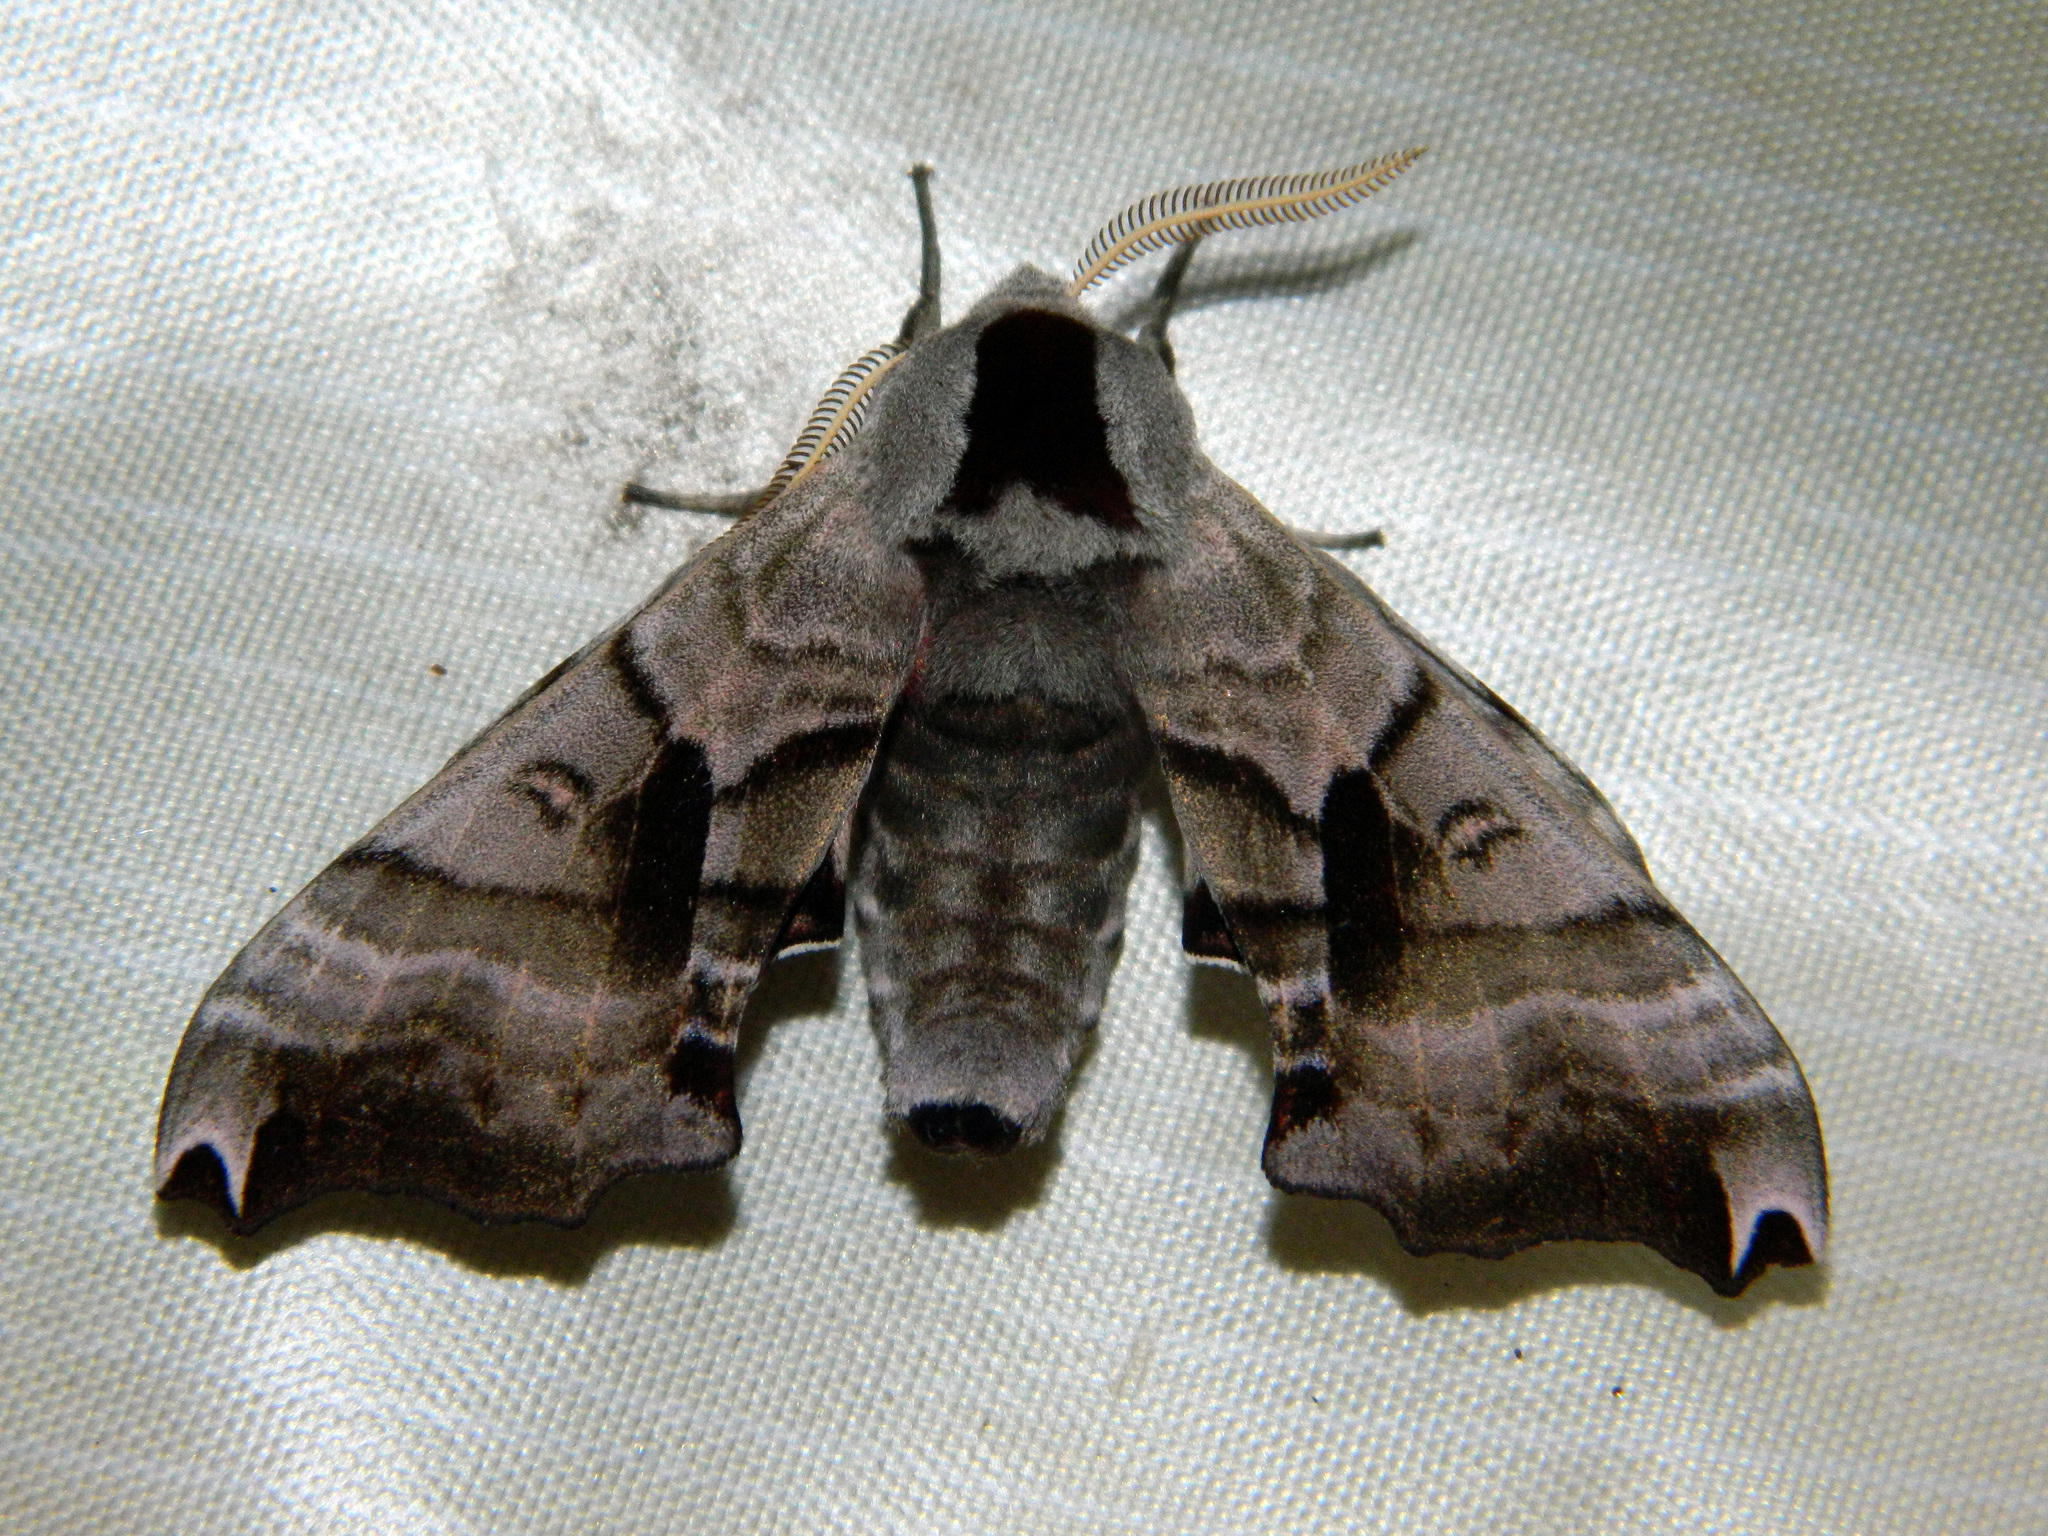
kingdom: Animalia
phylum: Arthropoda
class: Insecta
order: Lepidoptera
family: Sphingidae
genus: Smerinthus
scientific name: Smerinthus jamaicensis
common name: Twin spotted sphinx
